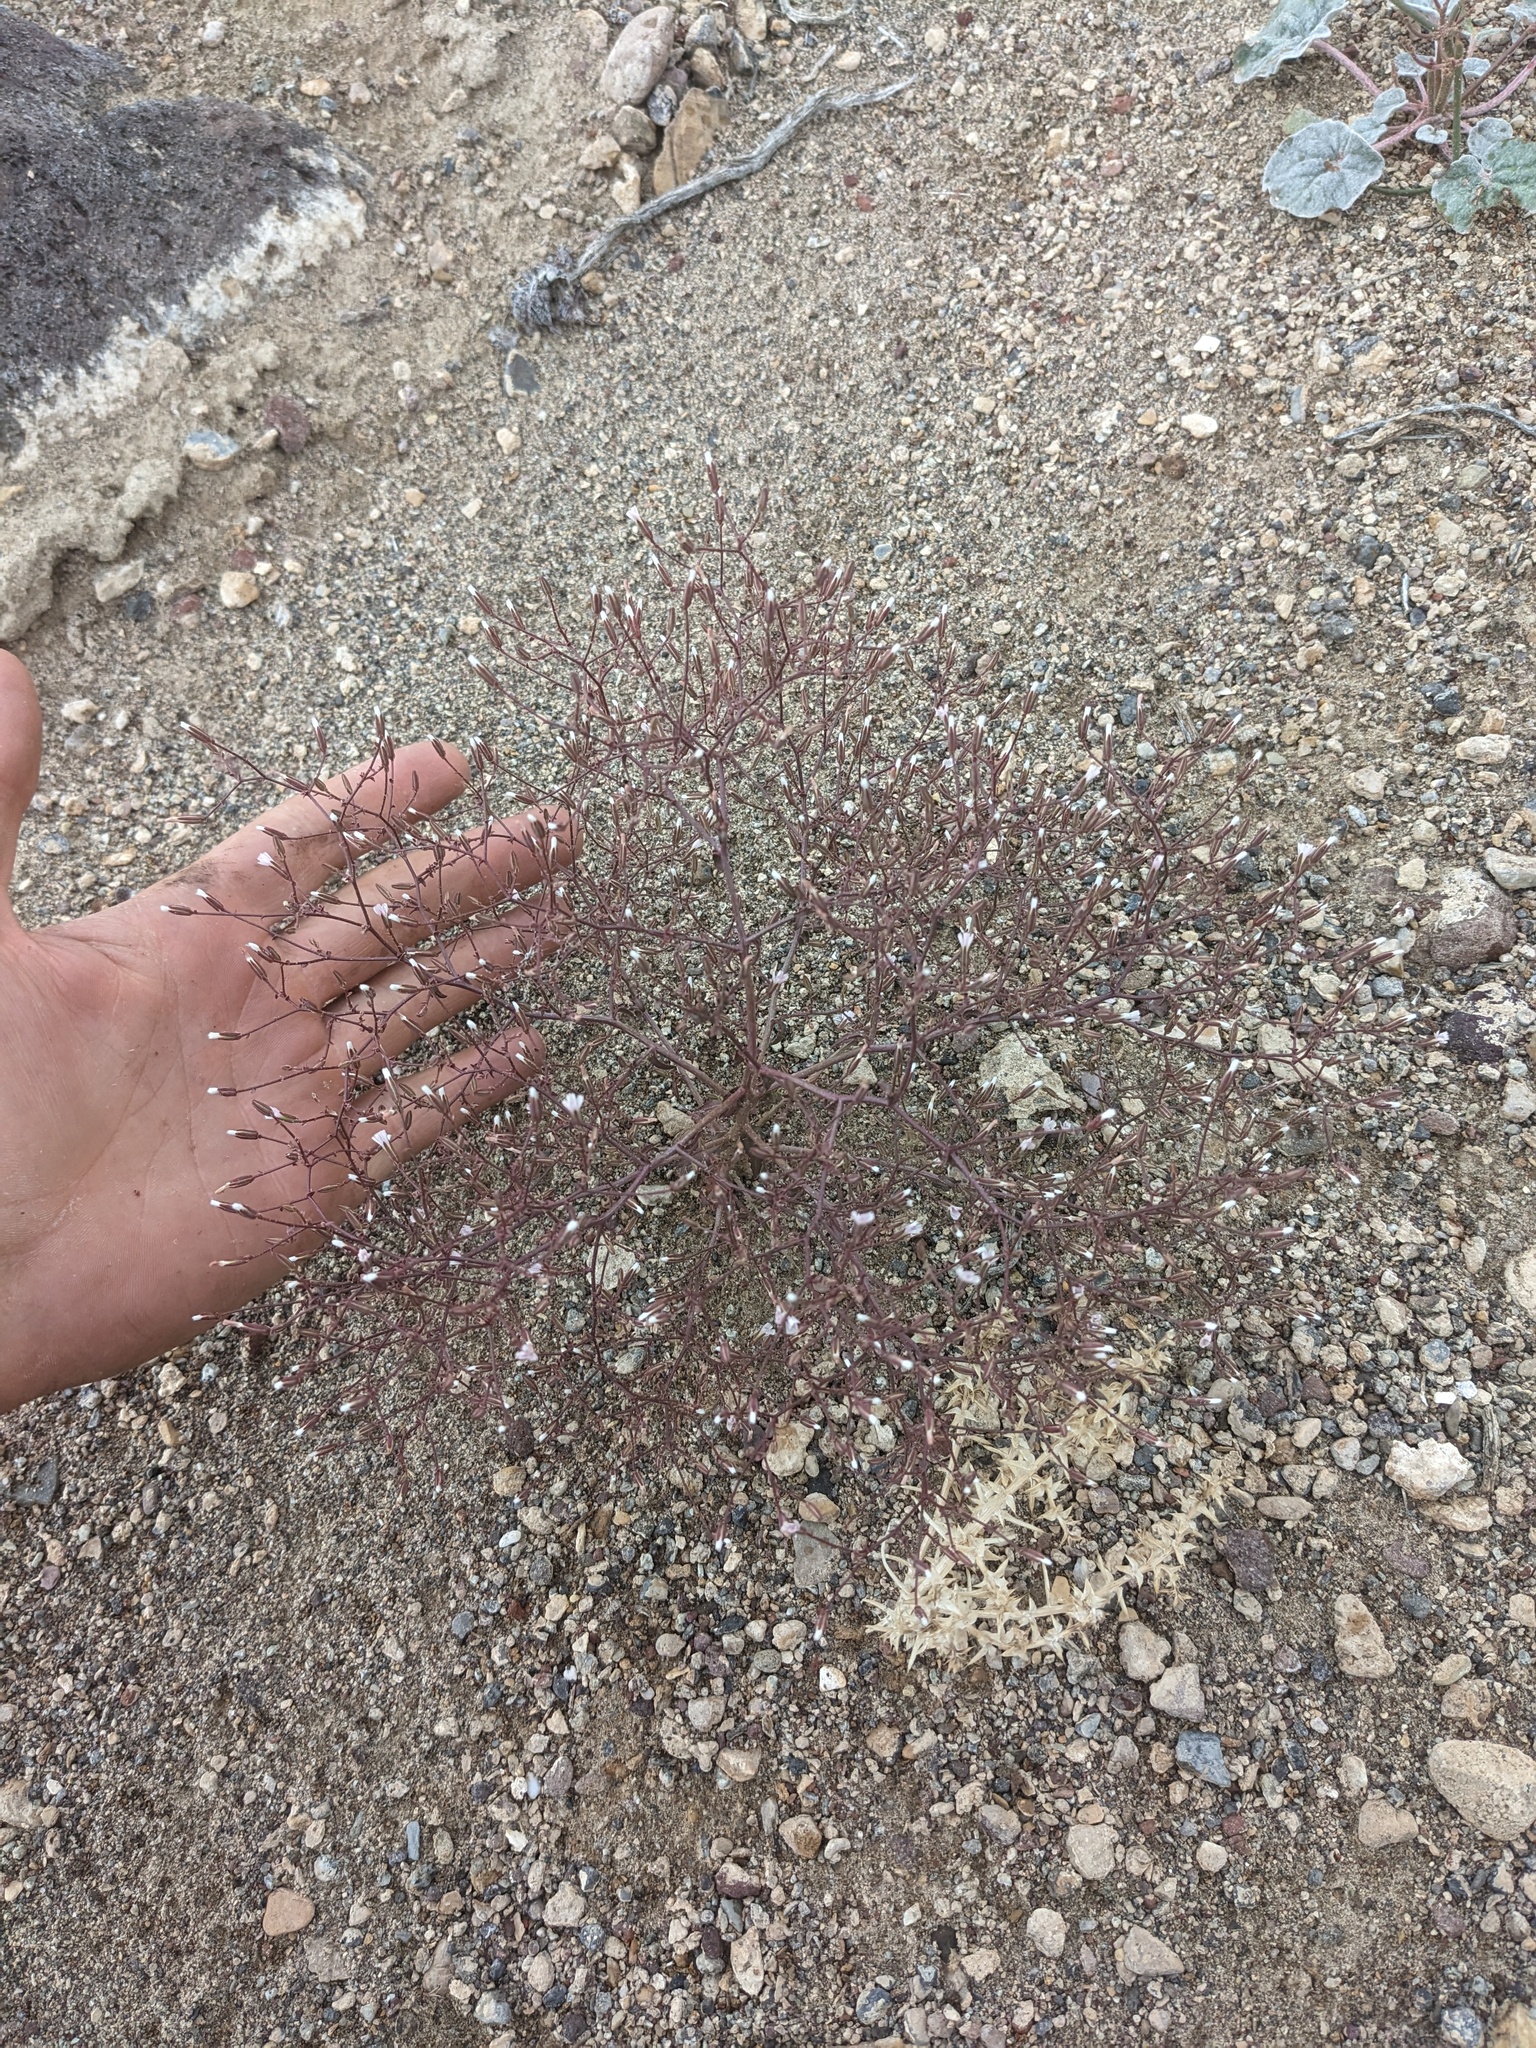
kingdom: Plantae
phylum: Tracheophyta
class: Magnoliopsida
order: Asterales
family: Asteraceae
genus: Lygodesmia
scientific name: Lygodesmia exigua
